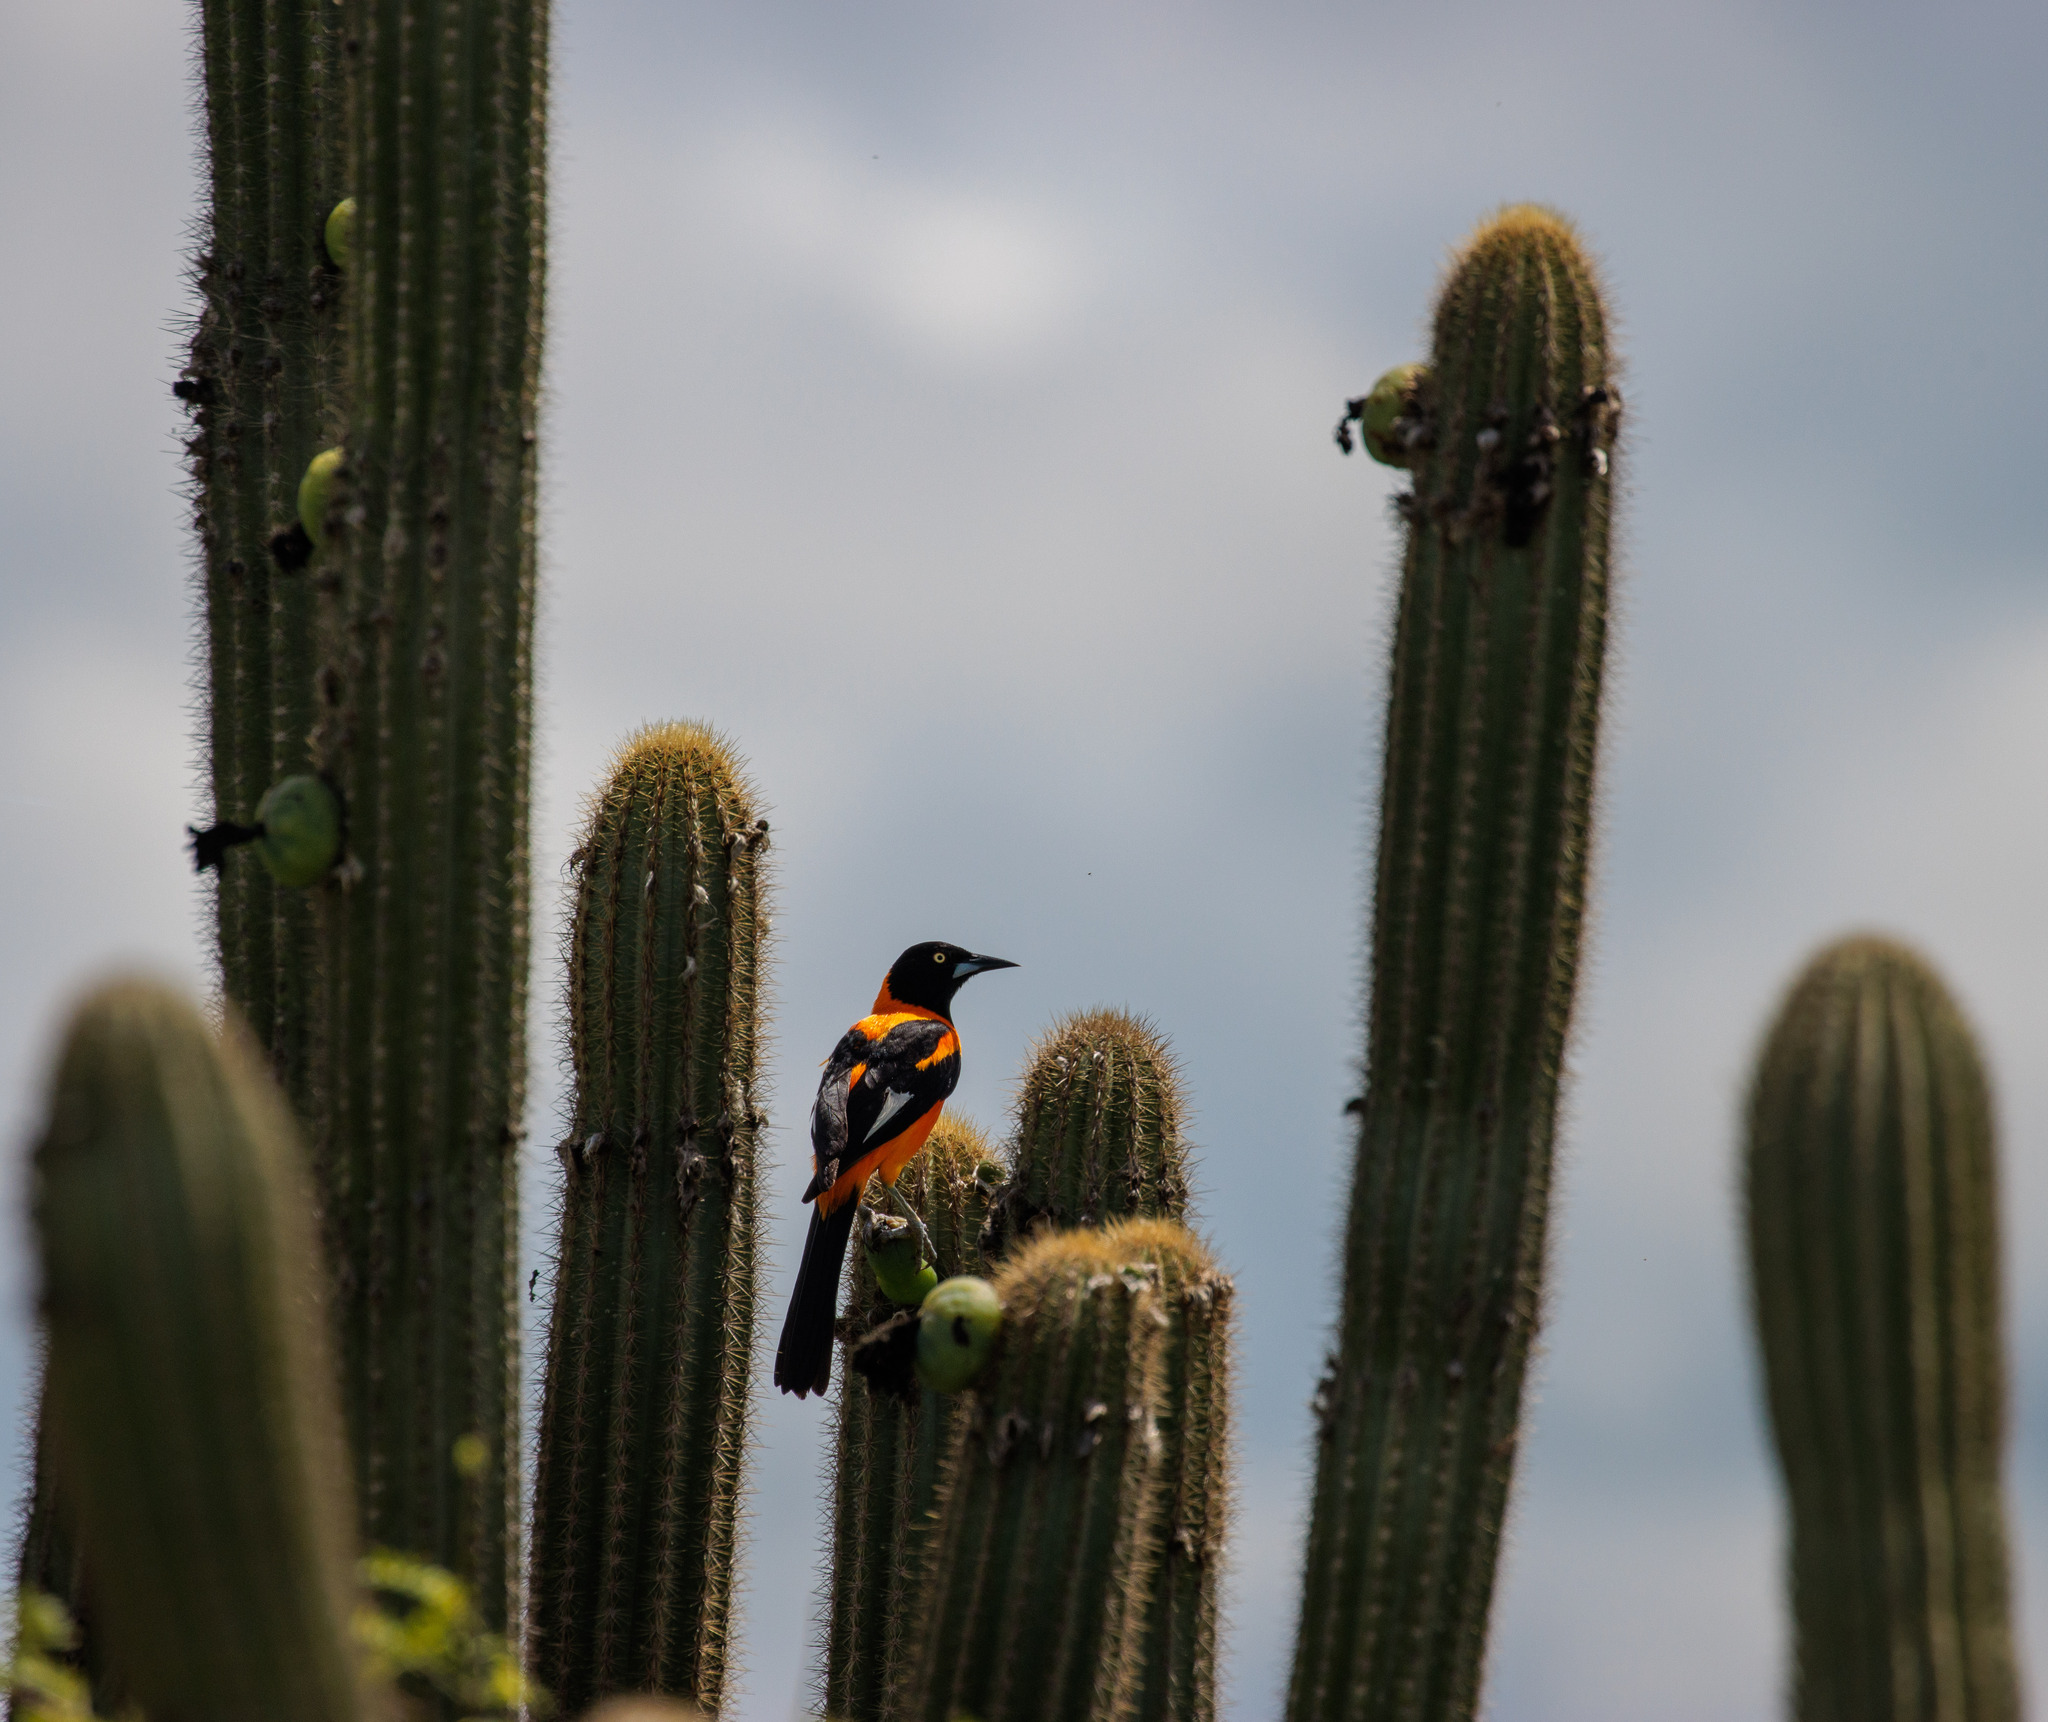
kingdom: Animalia
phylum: Chordata
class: Aves
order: Passeriformes
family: Icteridae
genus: Icterus
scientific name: Icterus icterus
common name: Venezuelan troupial
